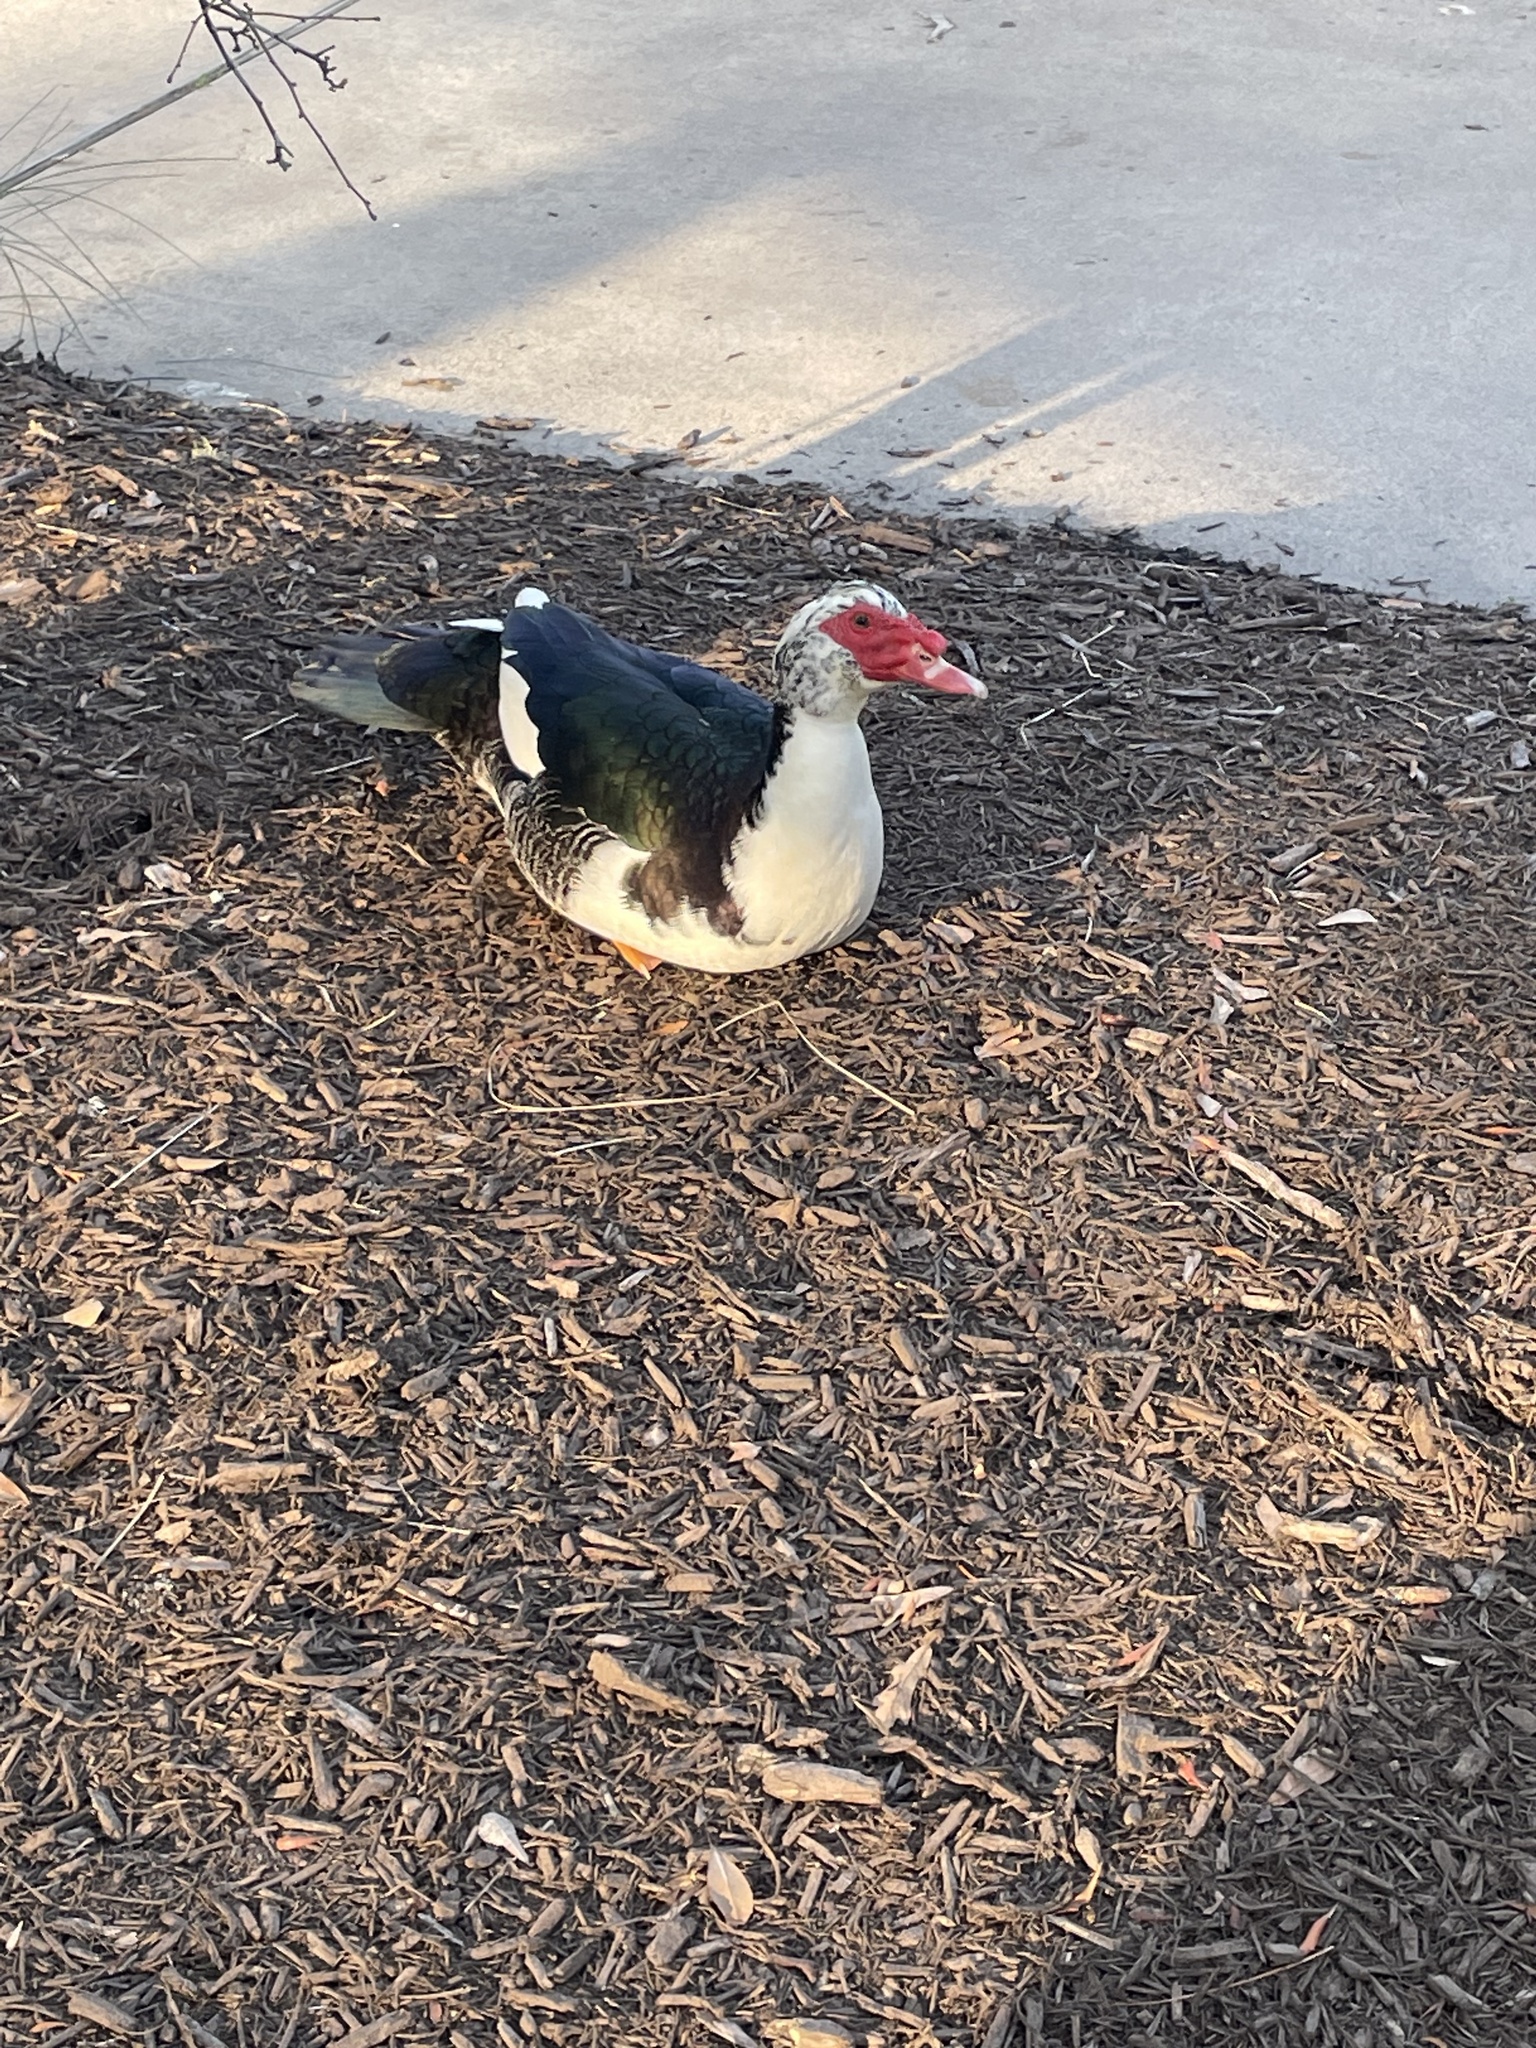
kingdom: Animalia
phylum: Chordata
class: Aves
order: Anseriformes
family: Anatidae
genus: Cairina
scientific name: Cairina moschata
